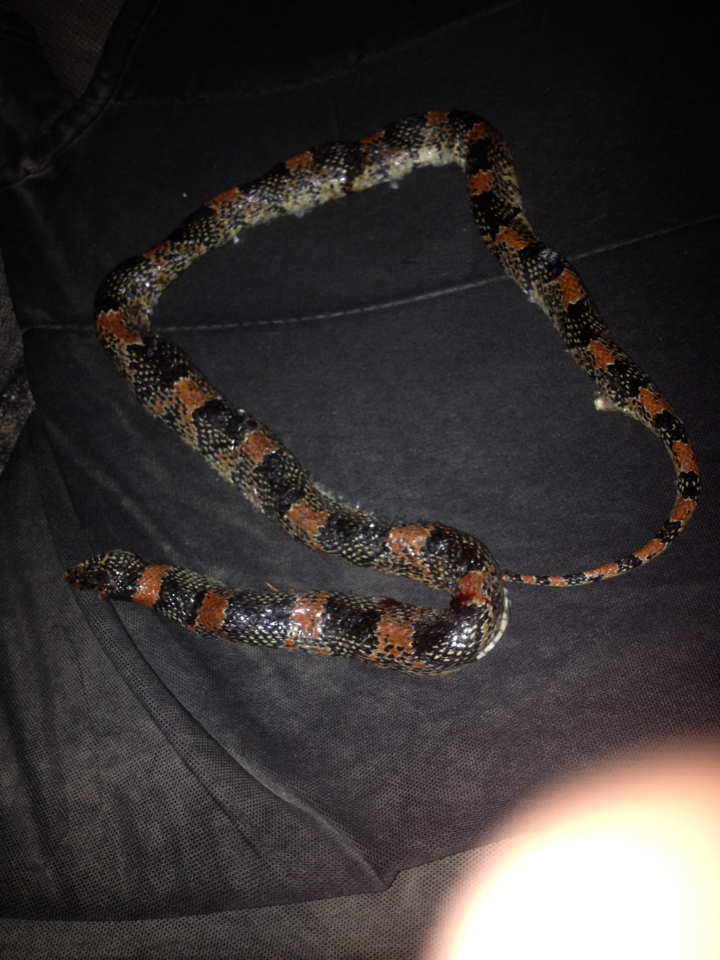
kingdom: Animalia
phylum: Chordata
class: Squamata
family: Colubridae
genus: Rhinocheilus
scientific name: Rhinocheilus lecontei
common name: Longnose snake
